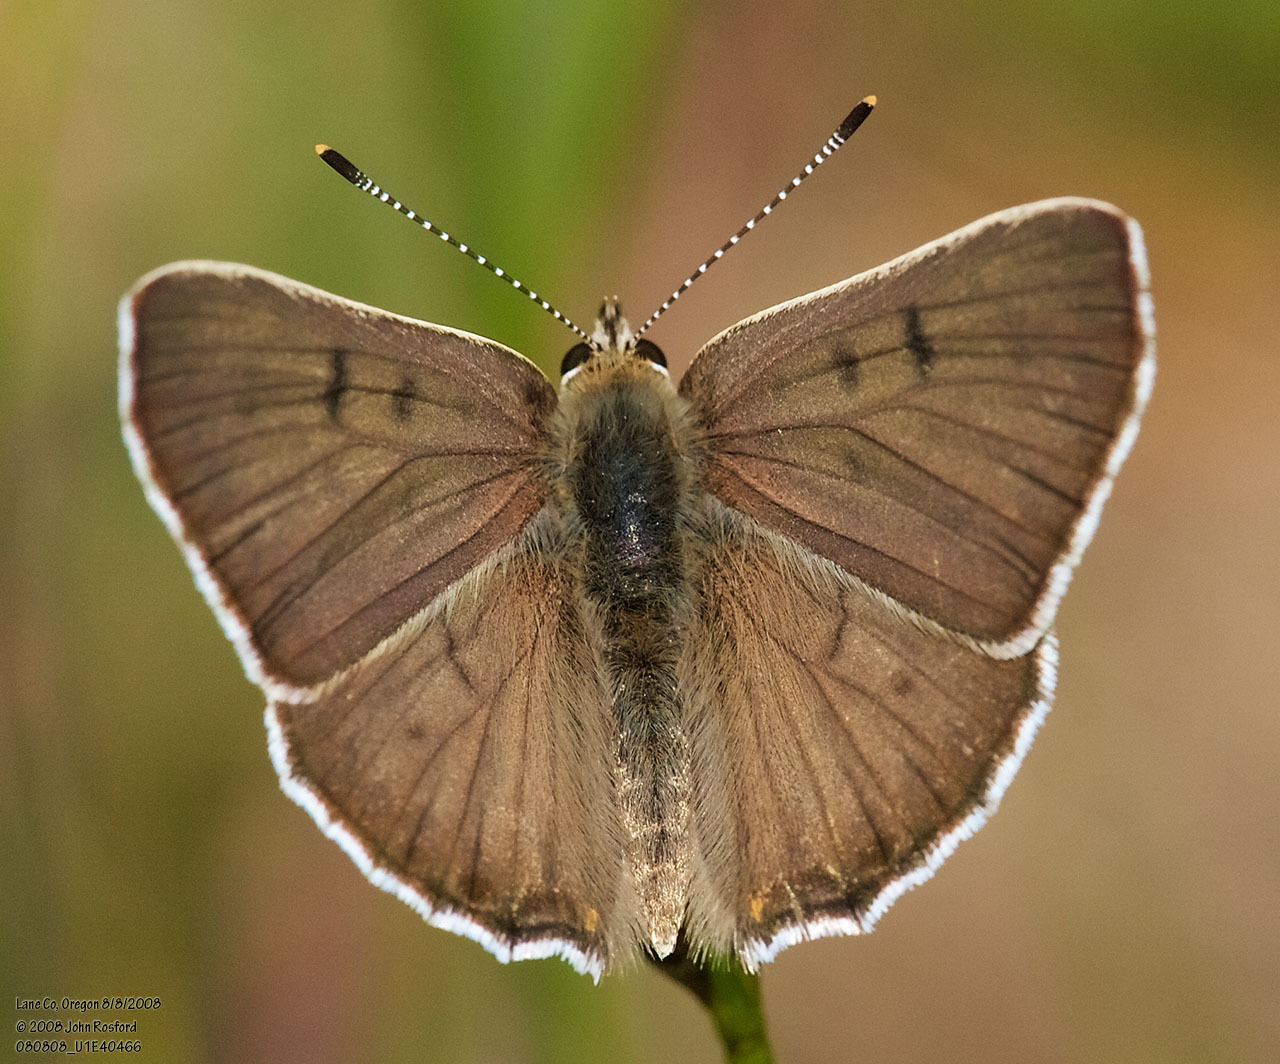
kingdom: Animalia
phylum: Arthropoda
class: Insecta
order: Lepidoptera
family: Lycaenidae
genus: Tharsalea
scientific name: Tharsalea editha
